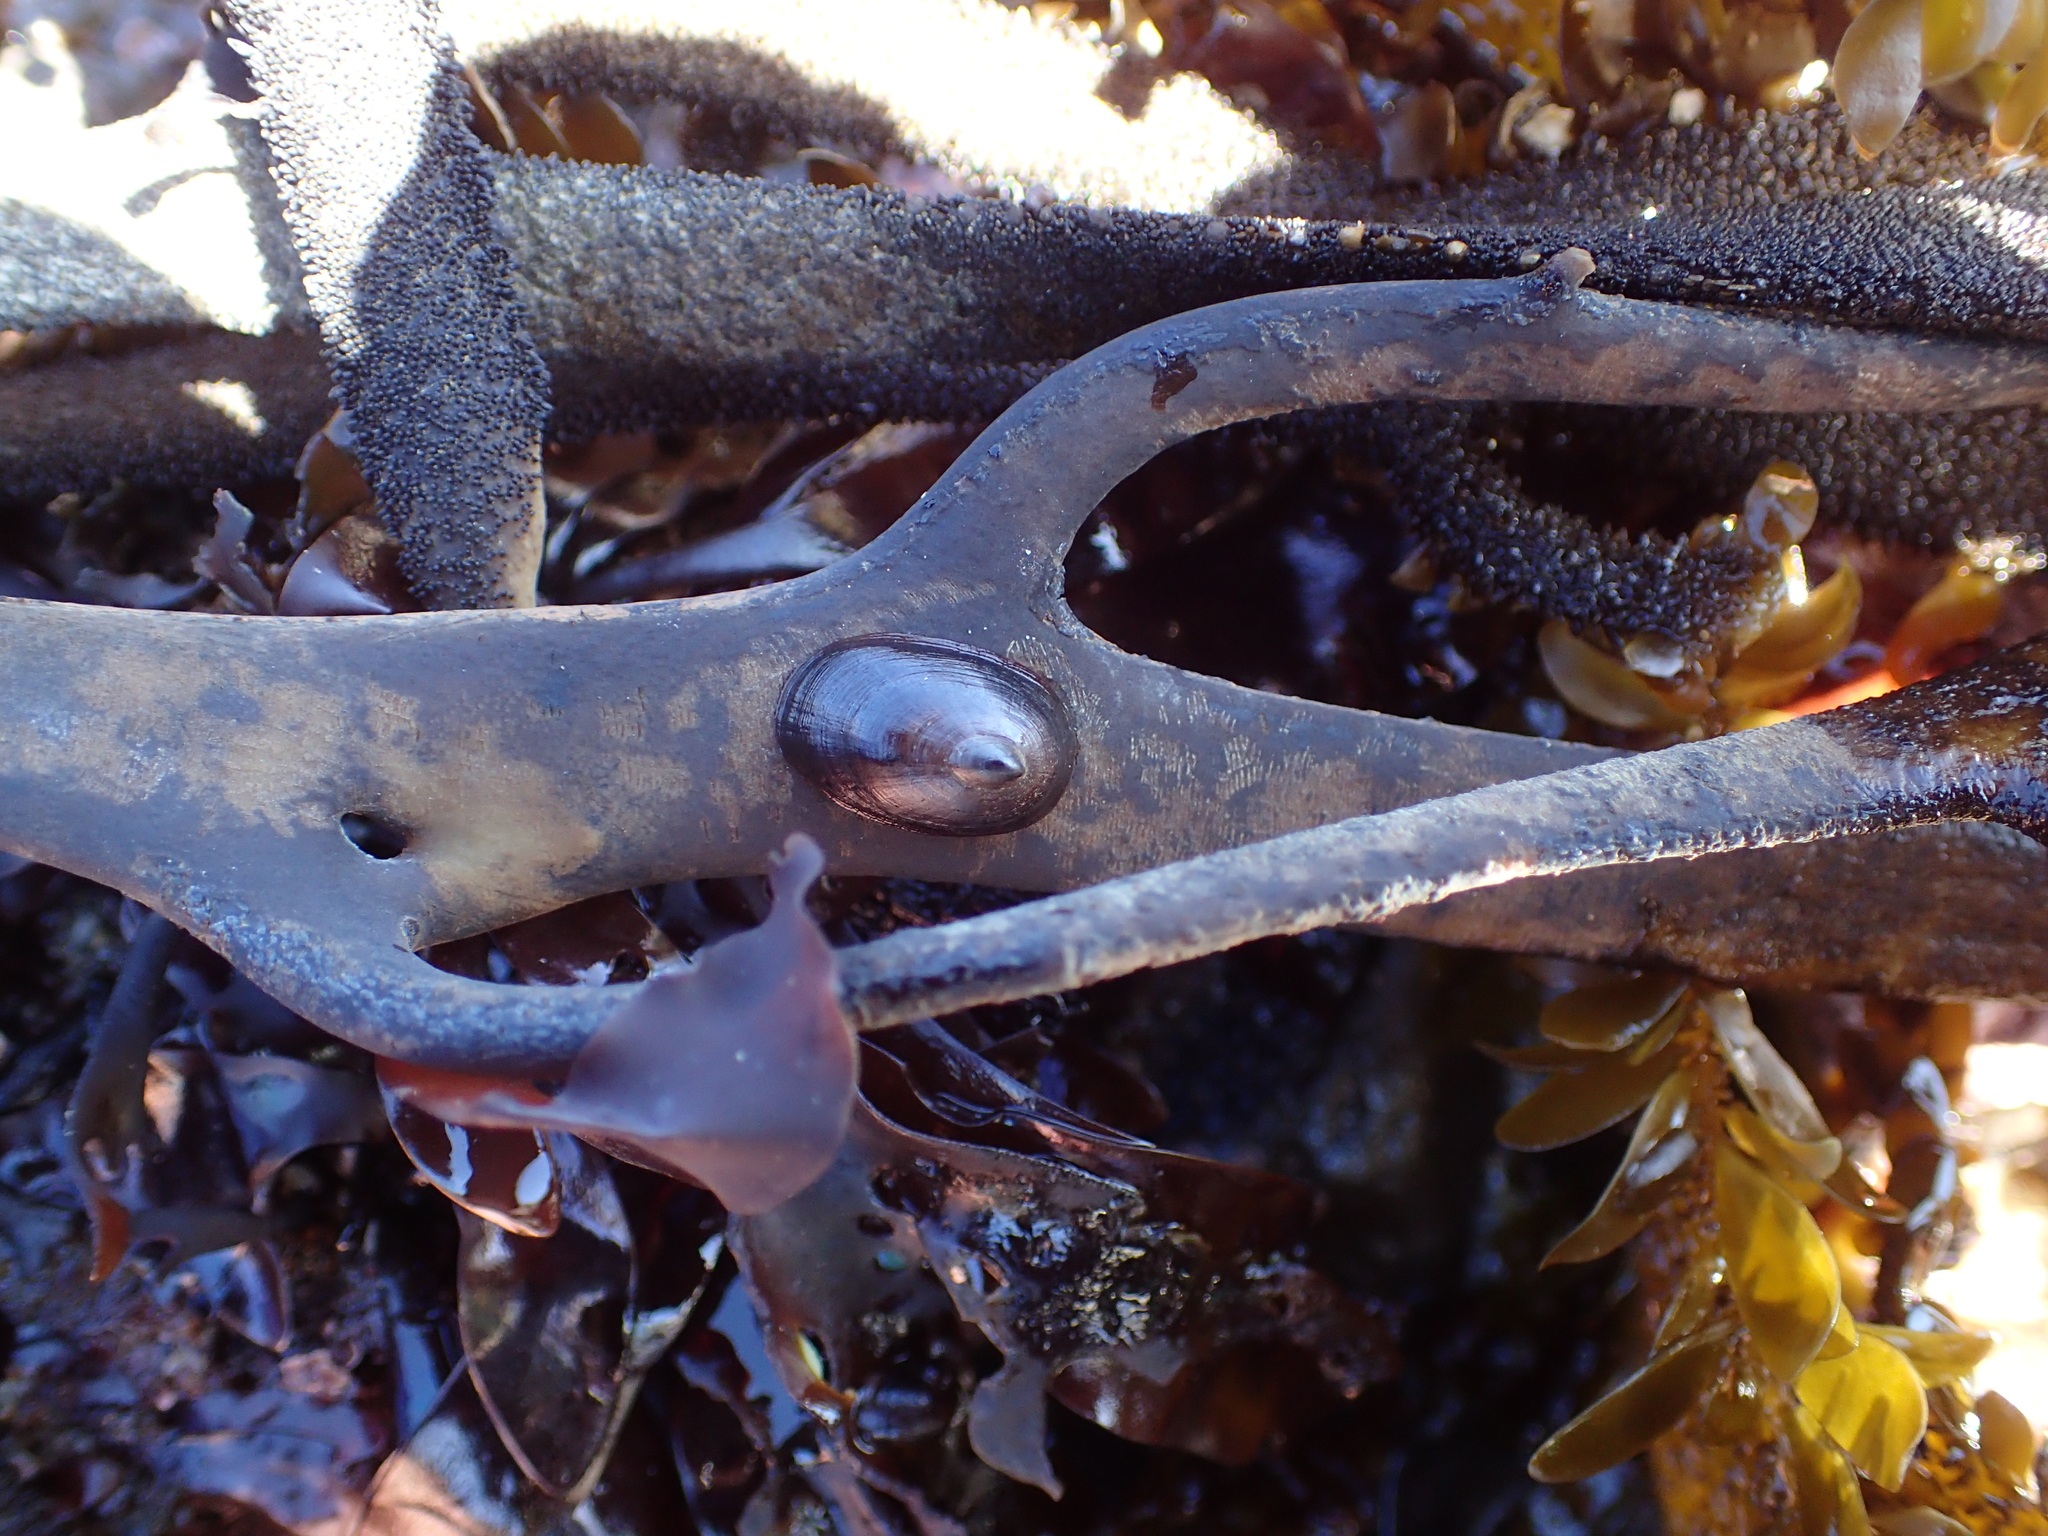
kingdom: Animalia
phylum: Mollusca
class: Gastropoda
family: Lottiidae
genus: Discurria
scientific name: Discurria insessa
